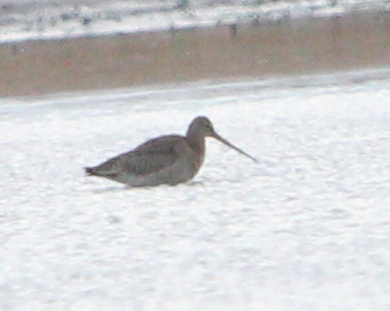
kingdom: Animalia
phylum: Chordata
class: Aves
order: Charadriiformes
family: Scolopacidae
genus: Limosa
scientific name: Limosa limosa
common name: Black-tailed godwit
